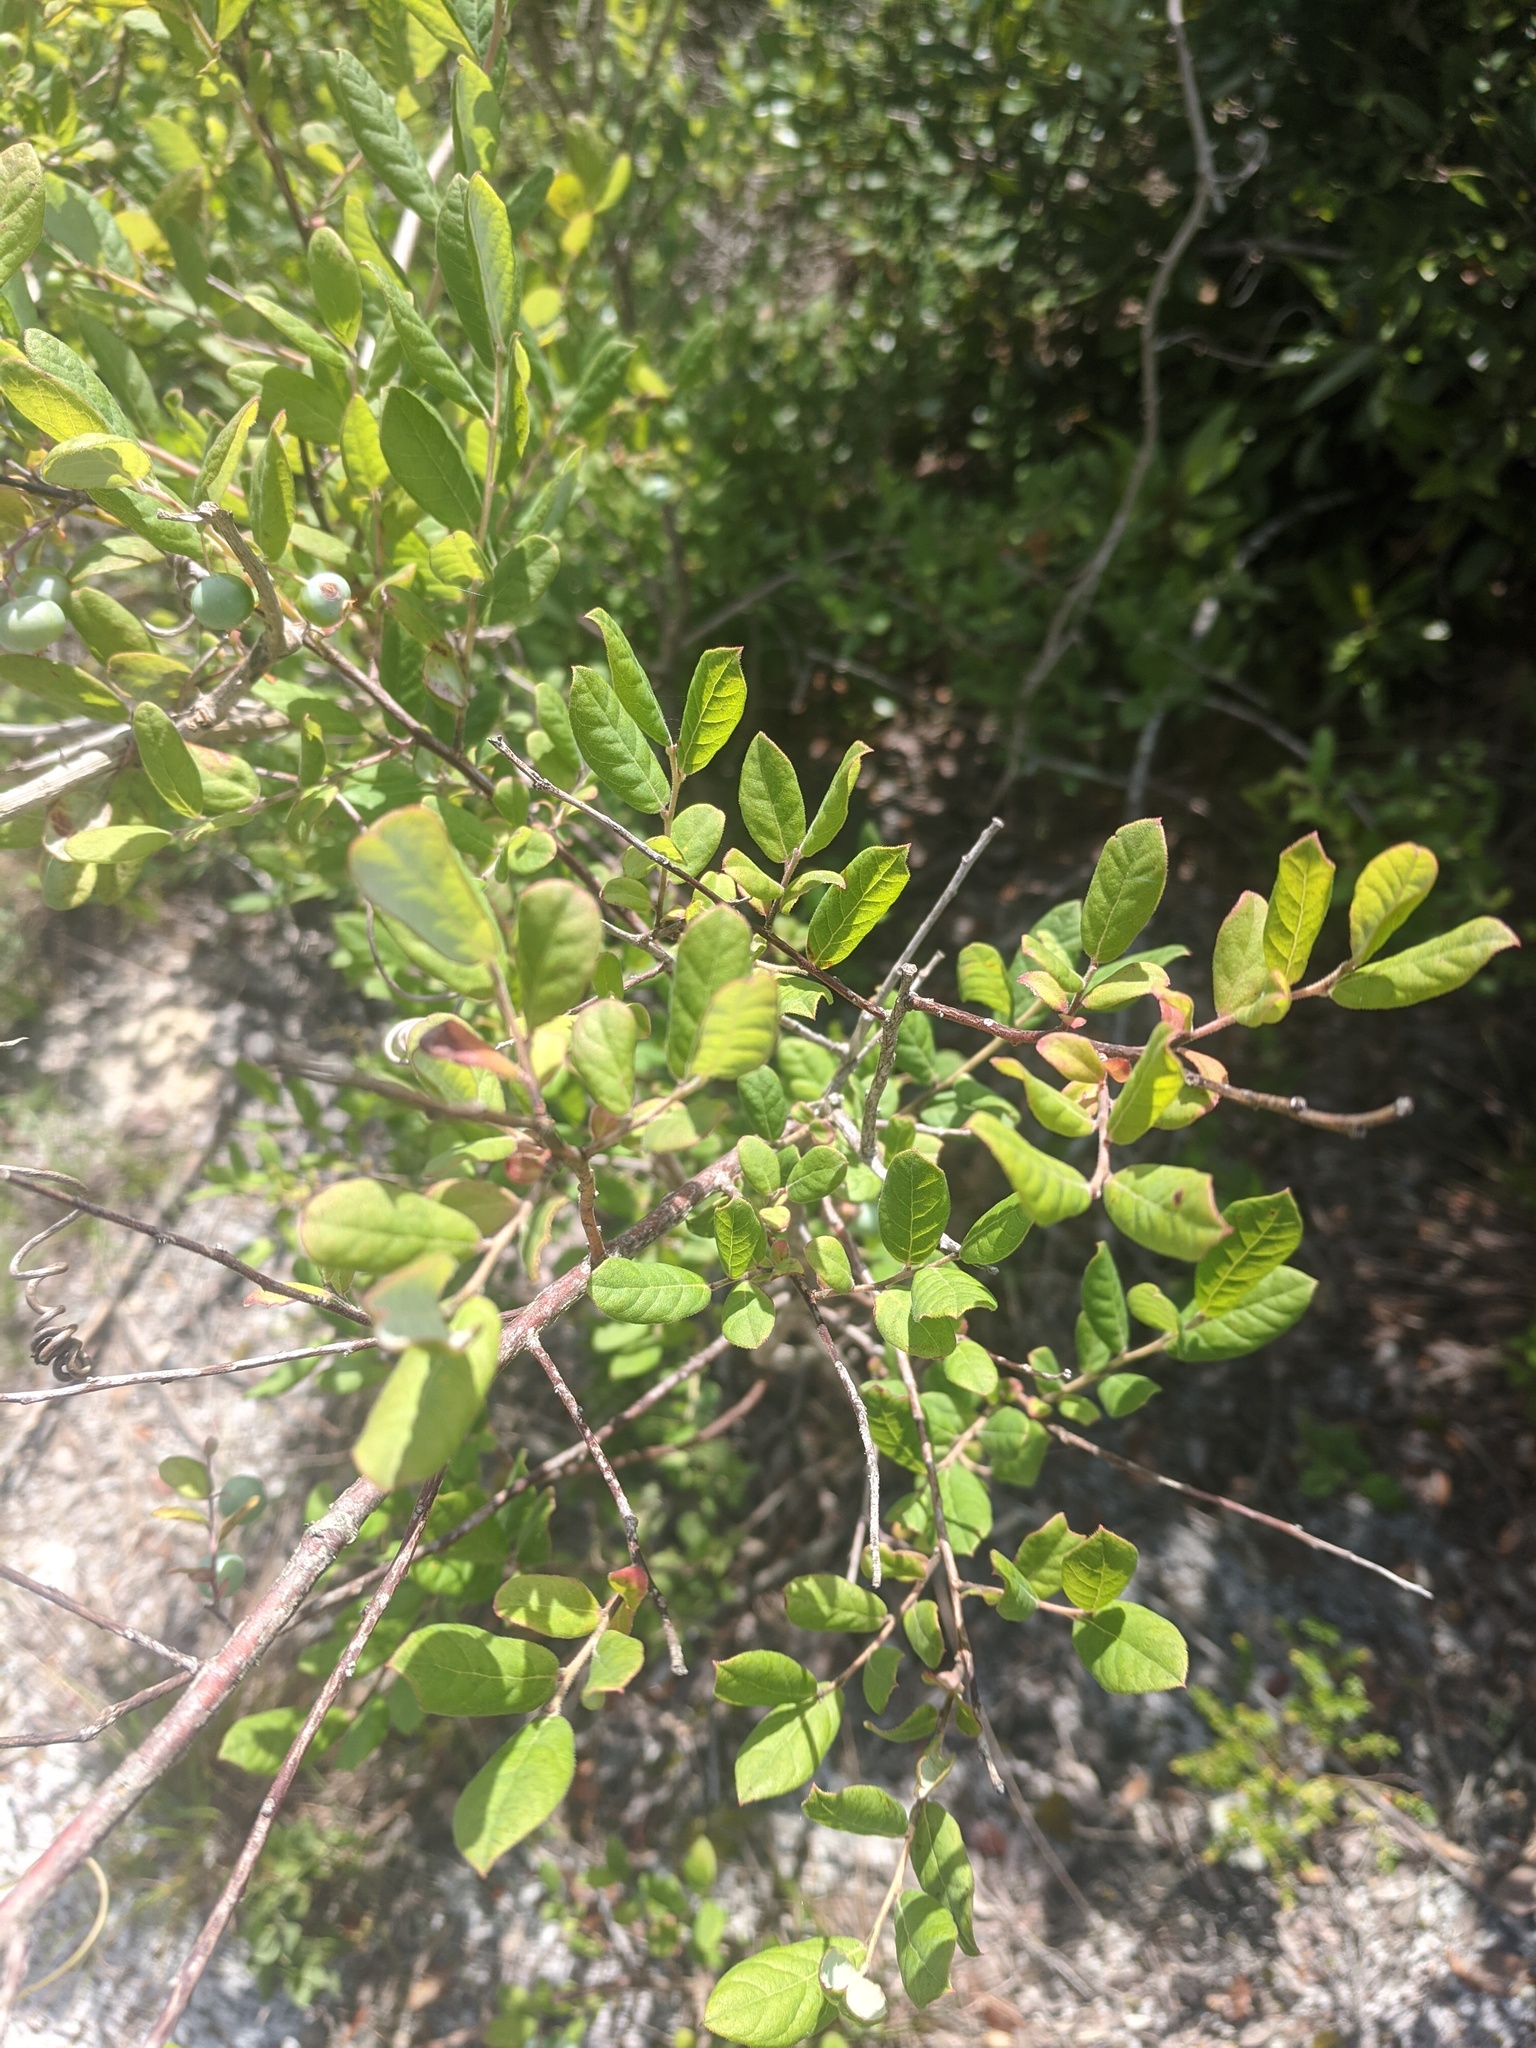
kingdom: Plantae
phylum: Tracheophyta
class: Magnoliopsida
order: Ericales
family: Ericaceae
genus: Vaccinium
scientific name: Vaccinium stamineum
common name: Deerberry
